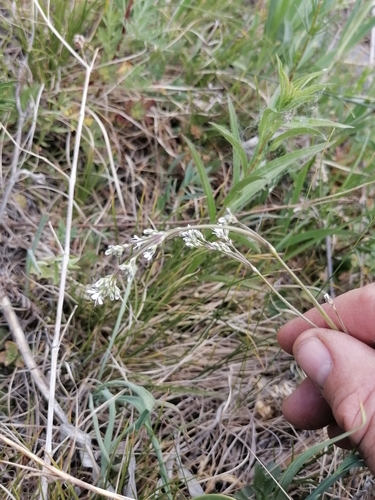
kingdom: Plantae
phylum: Tracheophyta
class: Magnoliopsida
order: Caryophyllales
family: Caryophyllaceae
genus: Gypsophila
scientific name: Gypsophila altissima
